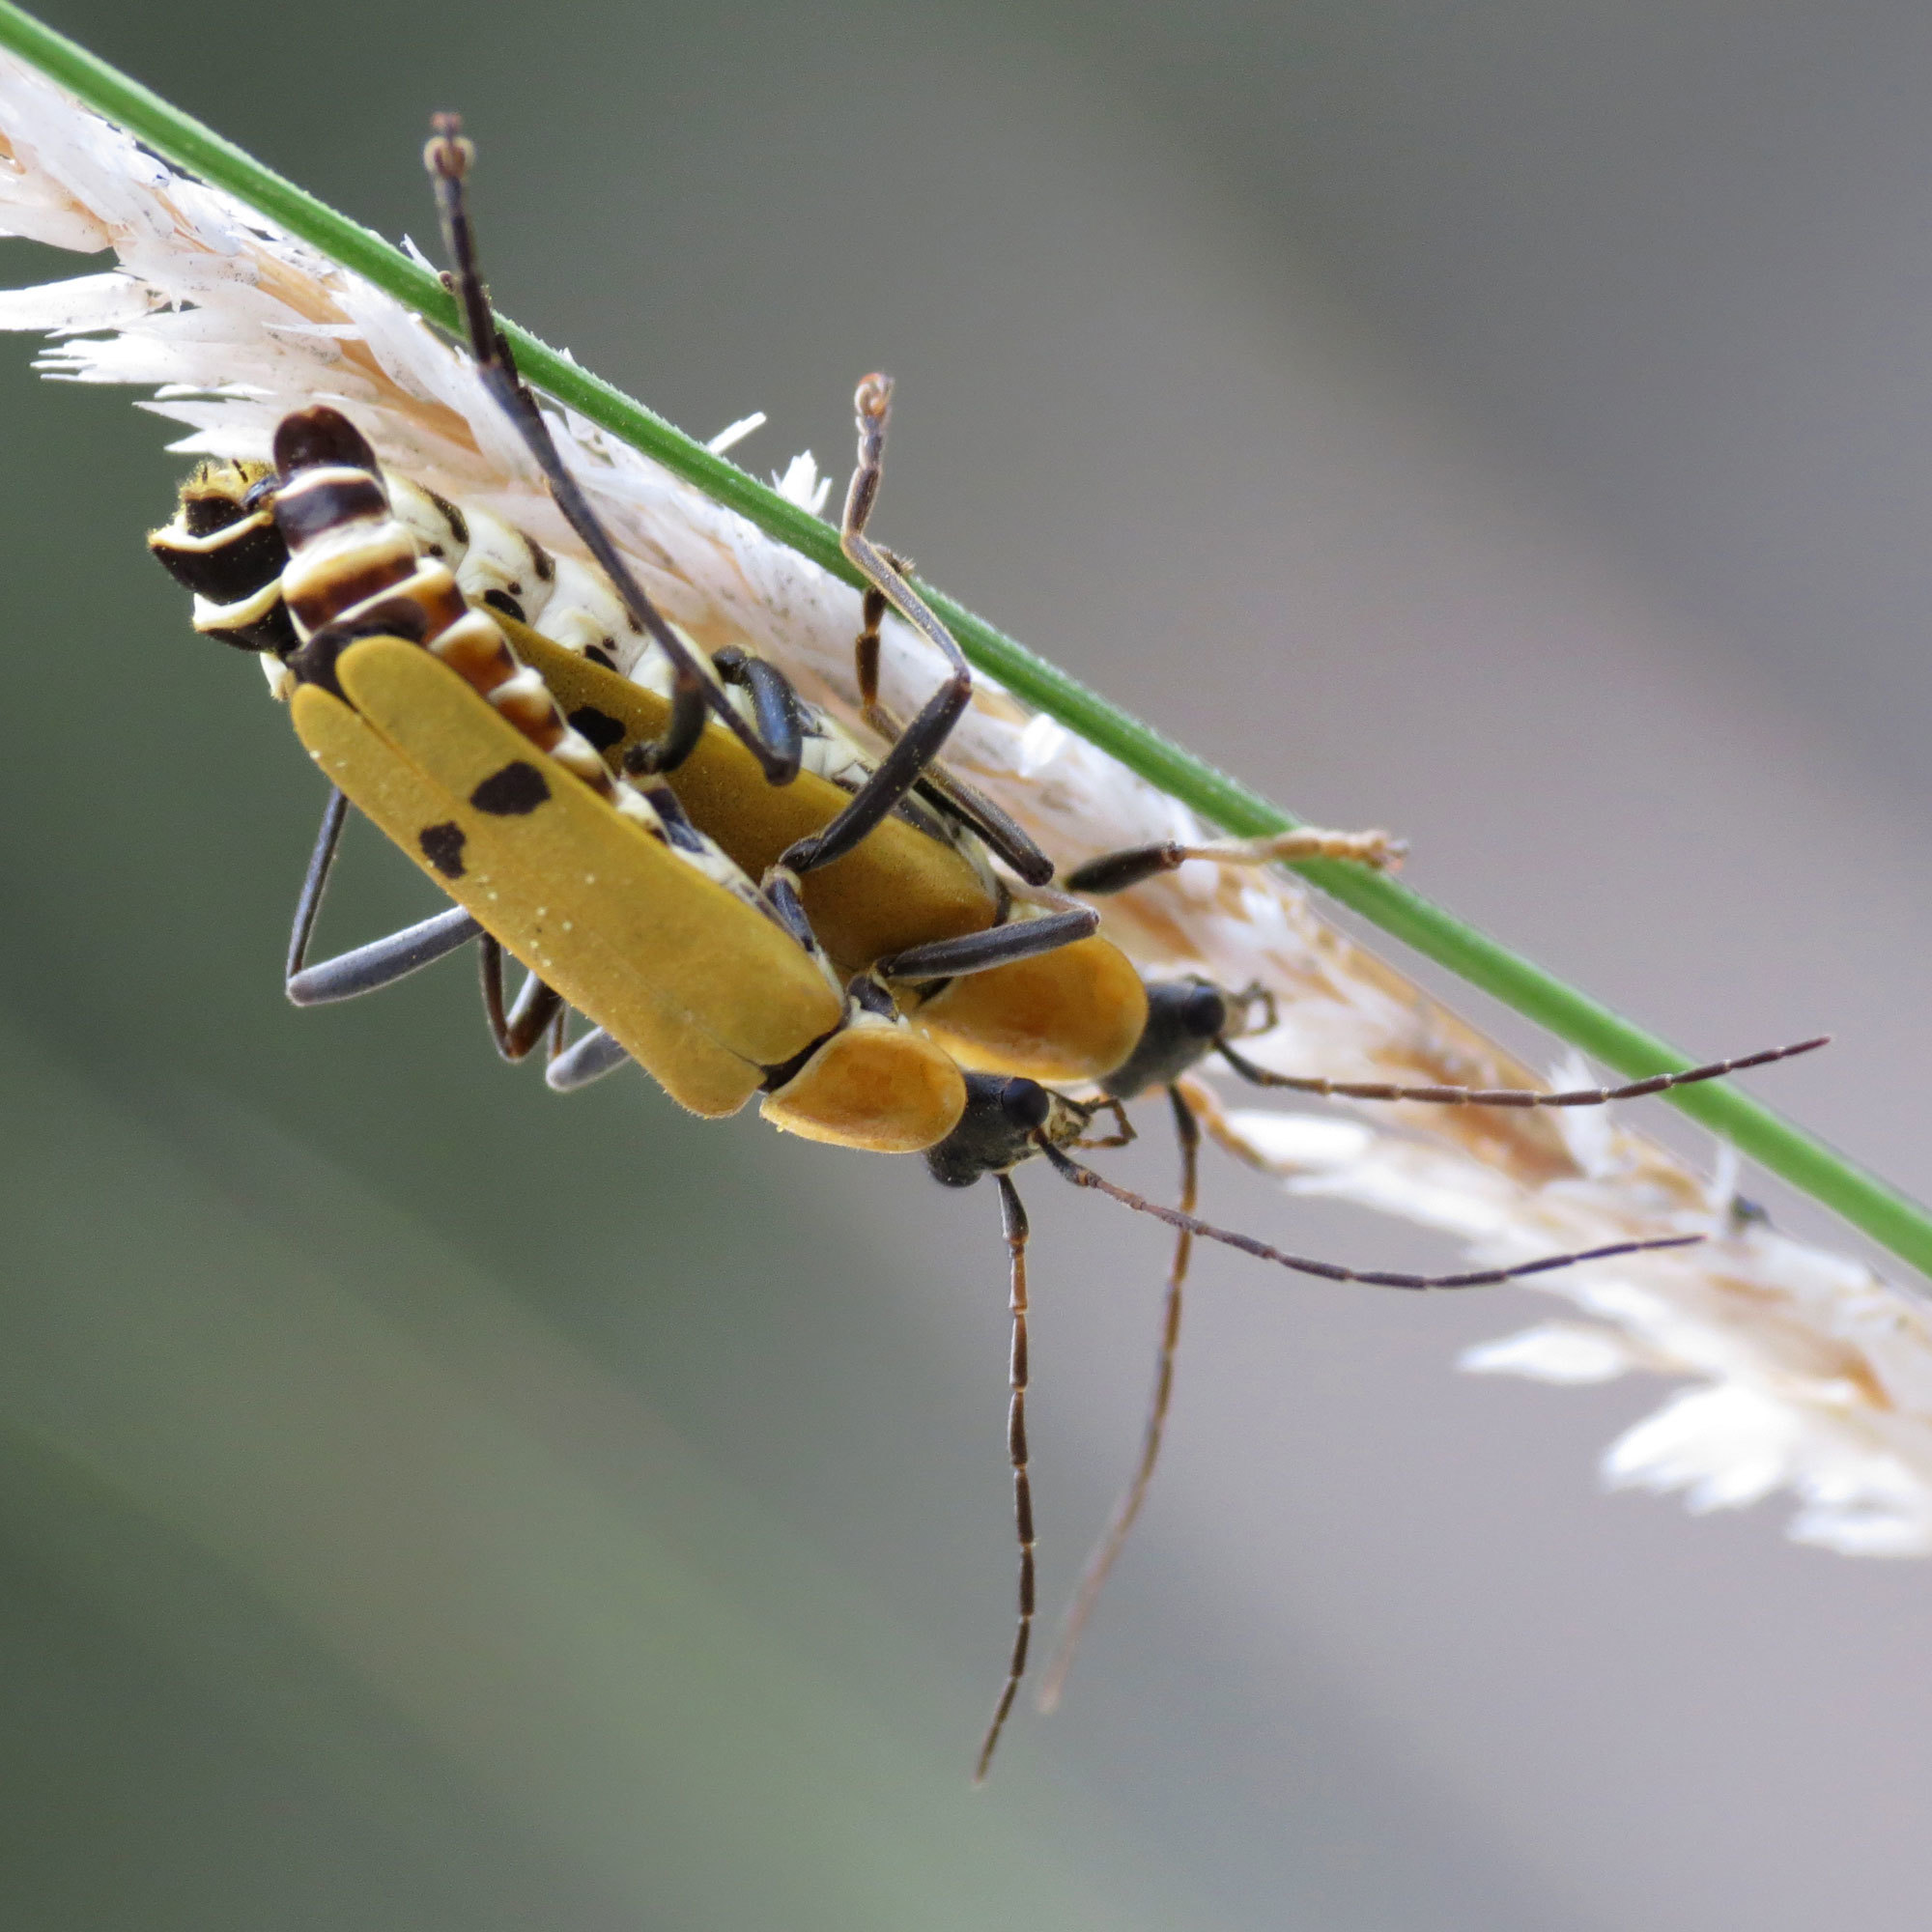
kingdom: Animalia
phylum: Arthropoda
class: Insecta
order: Coleoptera
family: Cantharidae
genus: Chauliognathus
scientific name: Chauliognathus misellus
